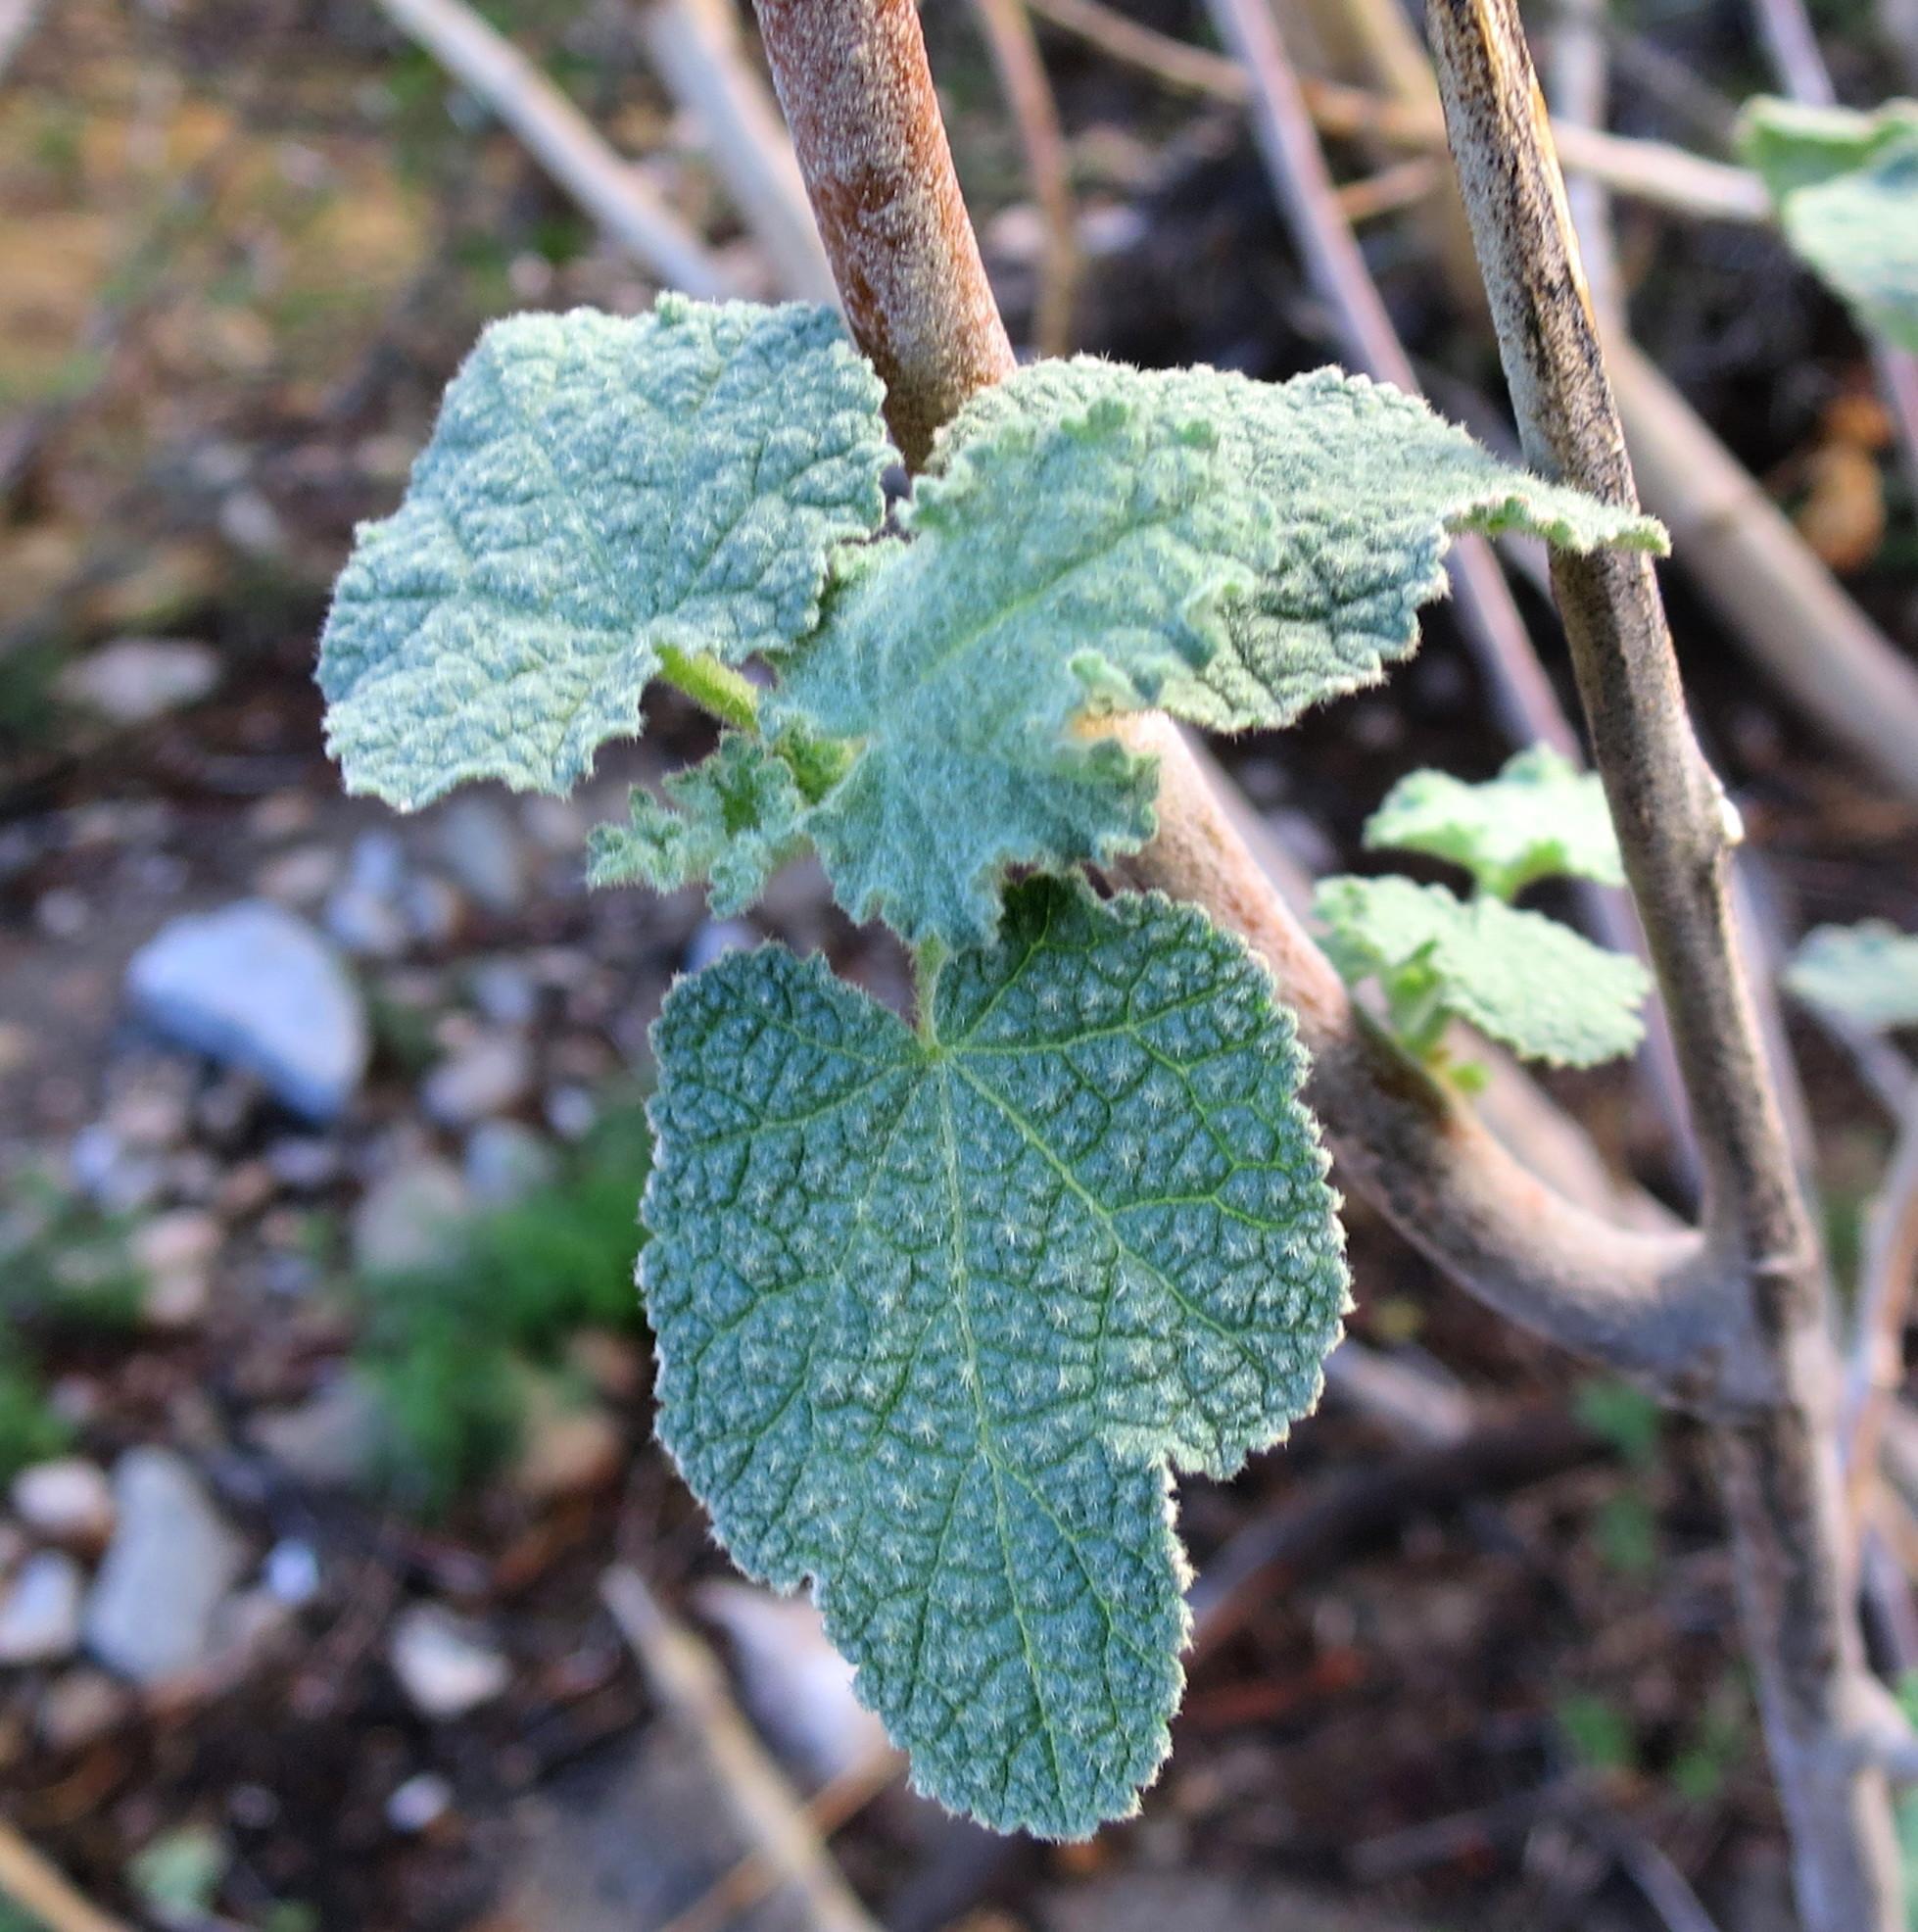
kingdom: Plantae
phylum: Tracheophyta
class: Magnoliopsida
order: Malvales
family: Malvaceae
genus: Anisodontea
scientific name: Anisodontea reflexa
